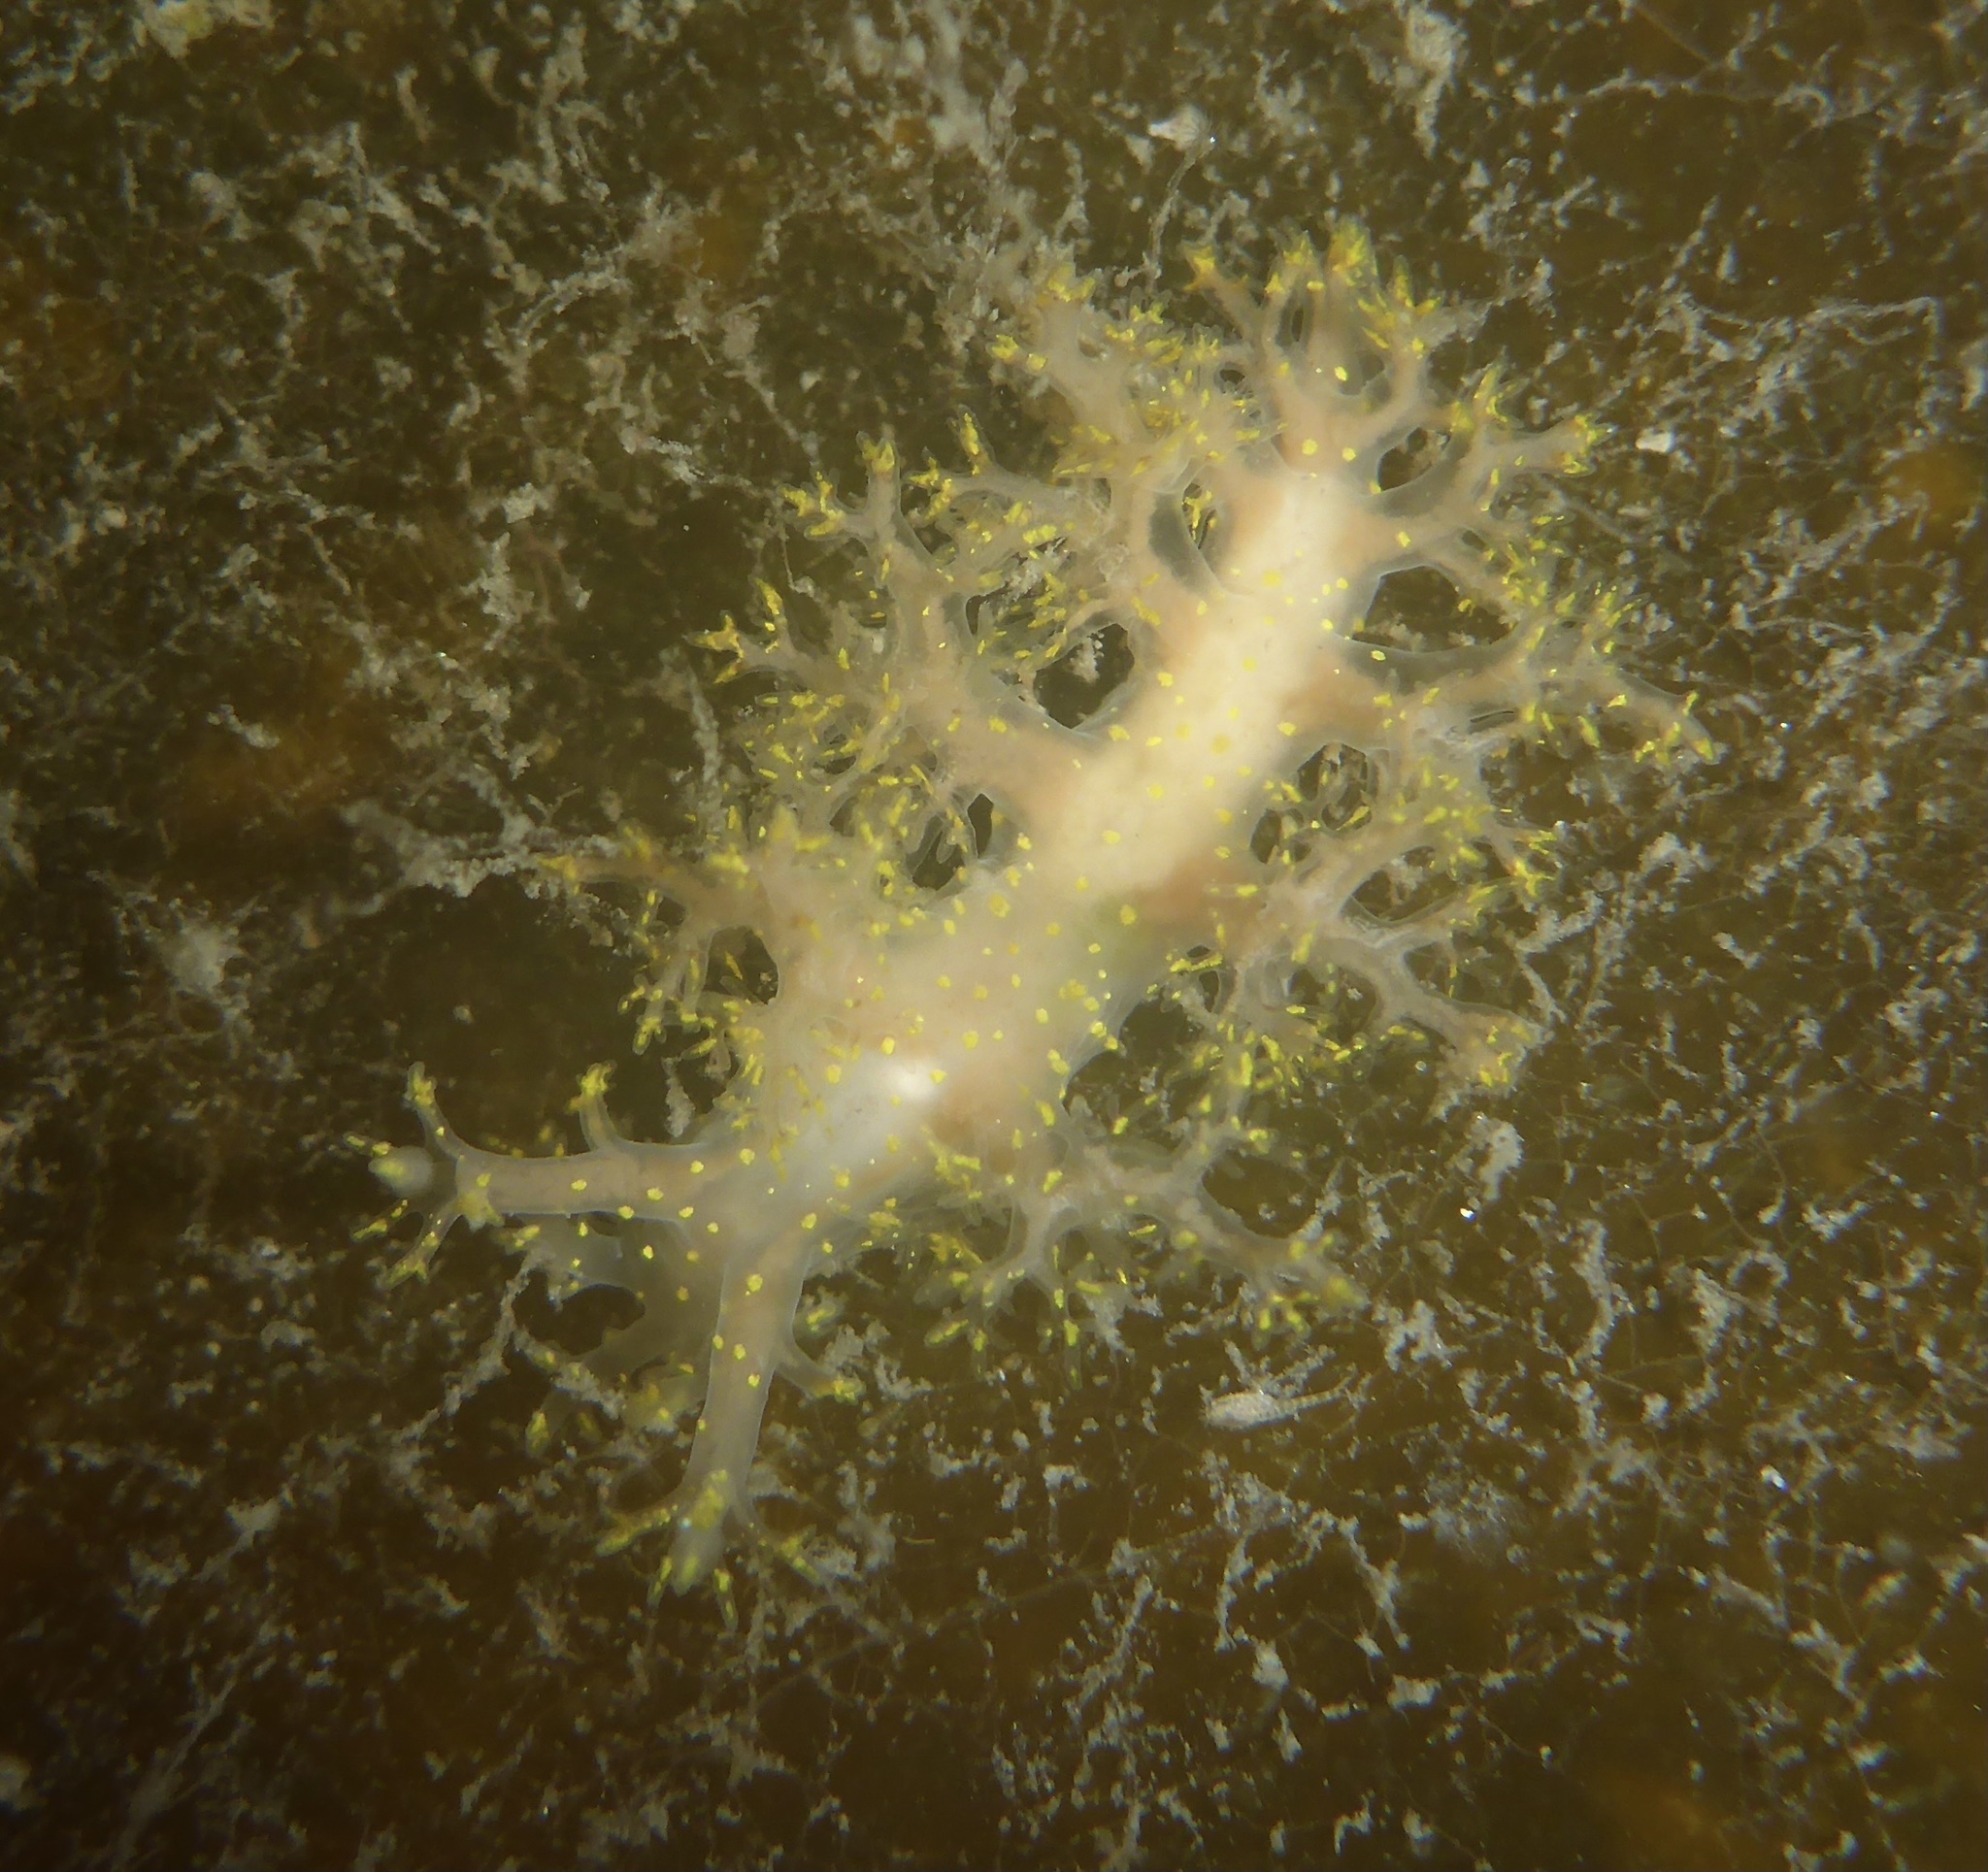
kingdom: Animalia
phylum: Mollusca
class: Gastropoda
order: Nudibranchia
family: Dendronotidae
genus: Dendronotus
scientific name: Dendronotus venustus
